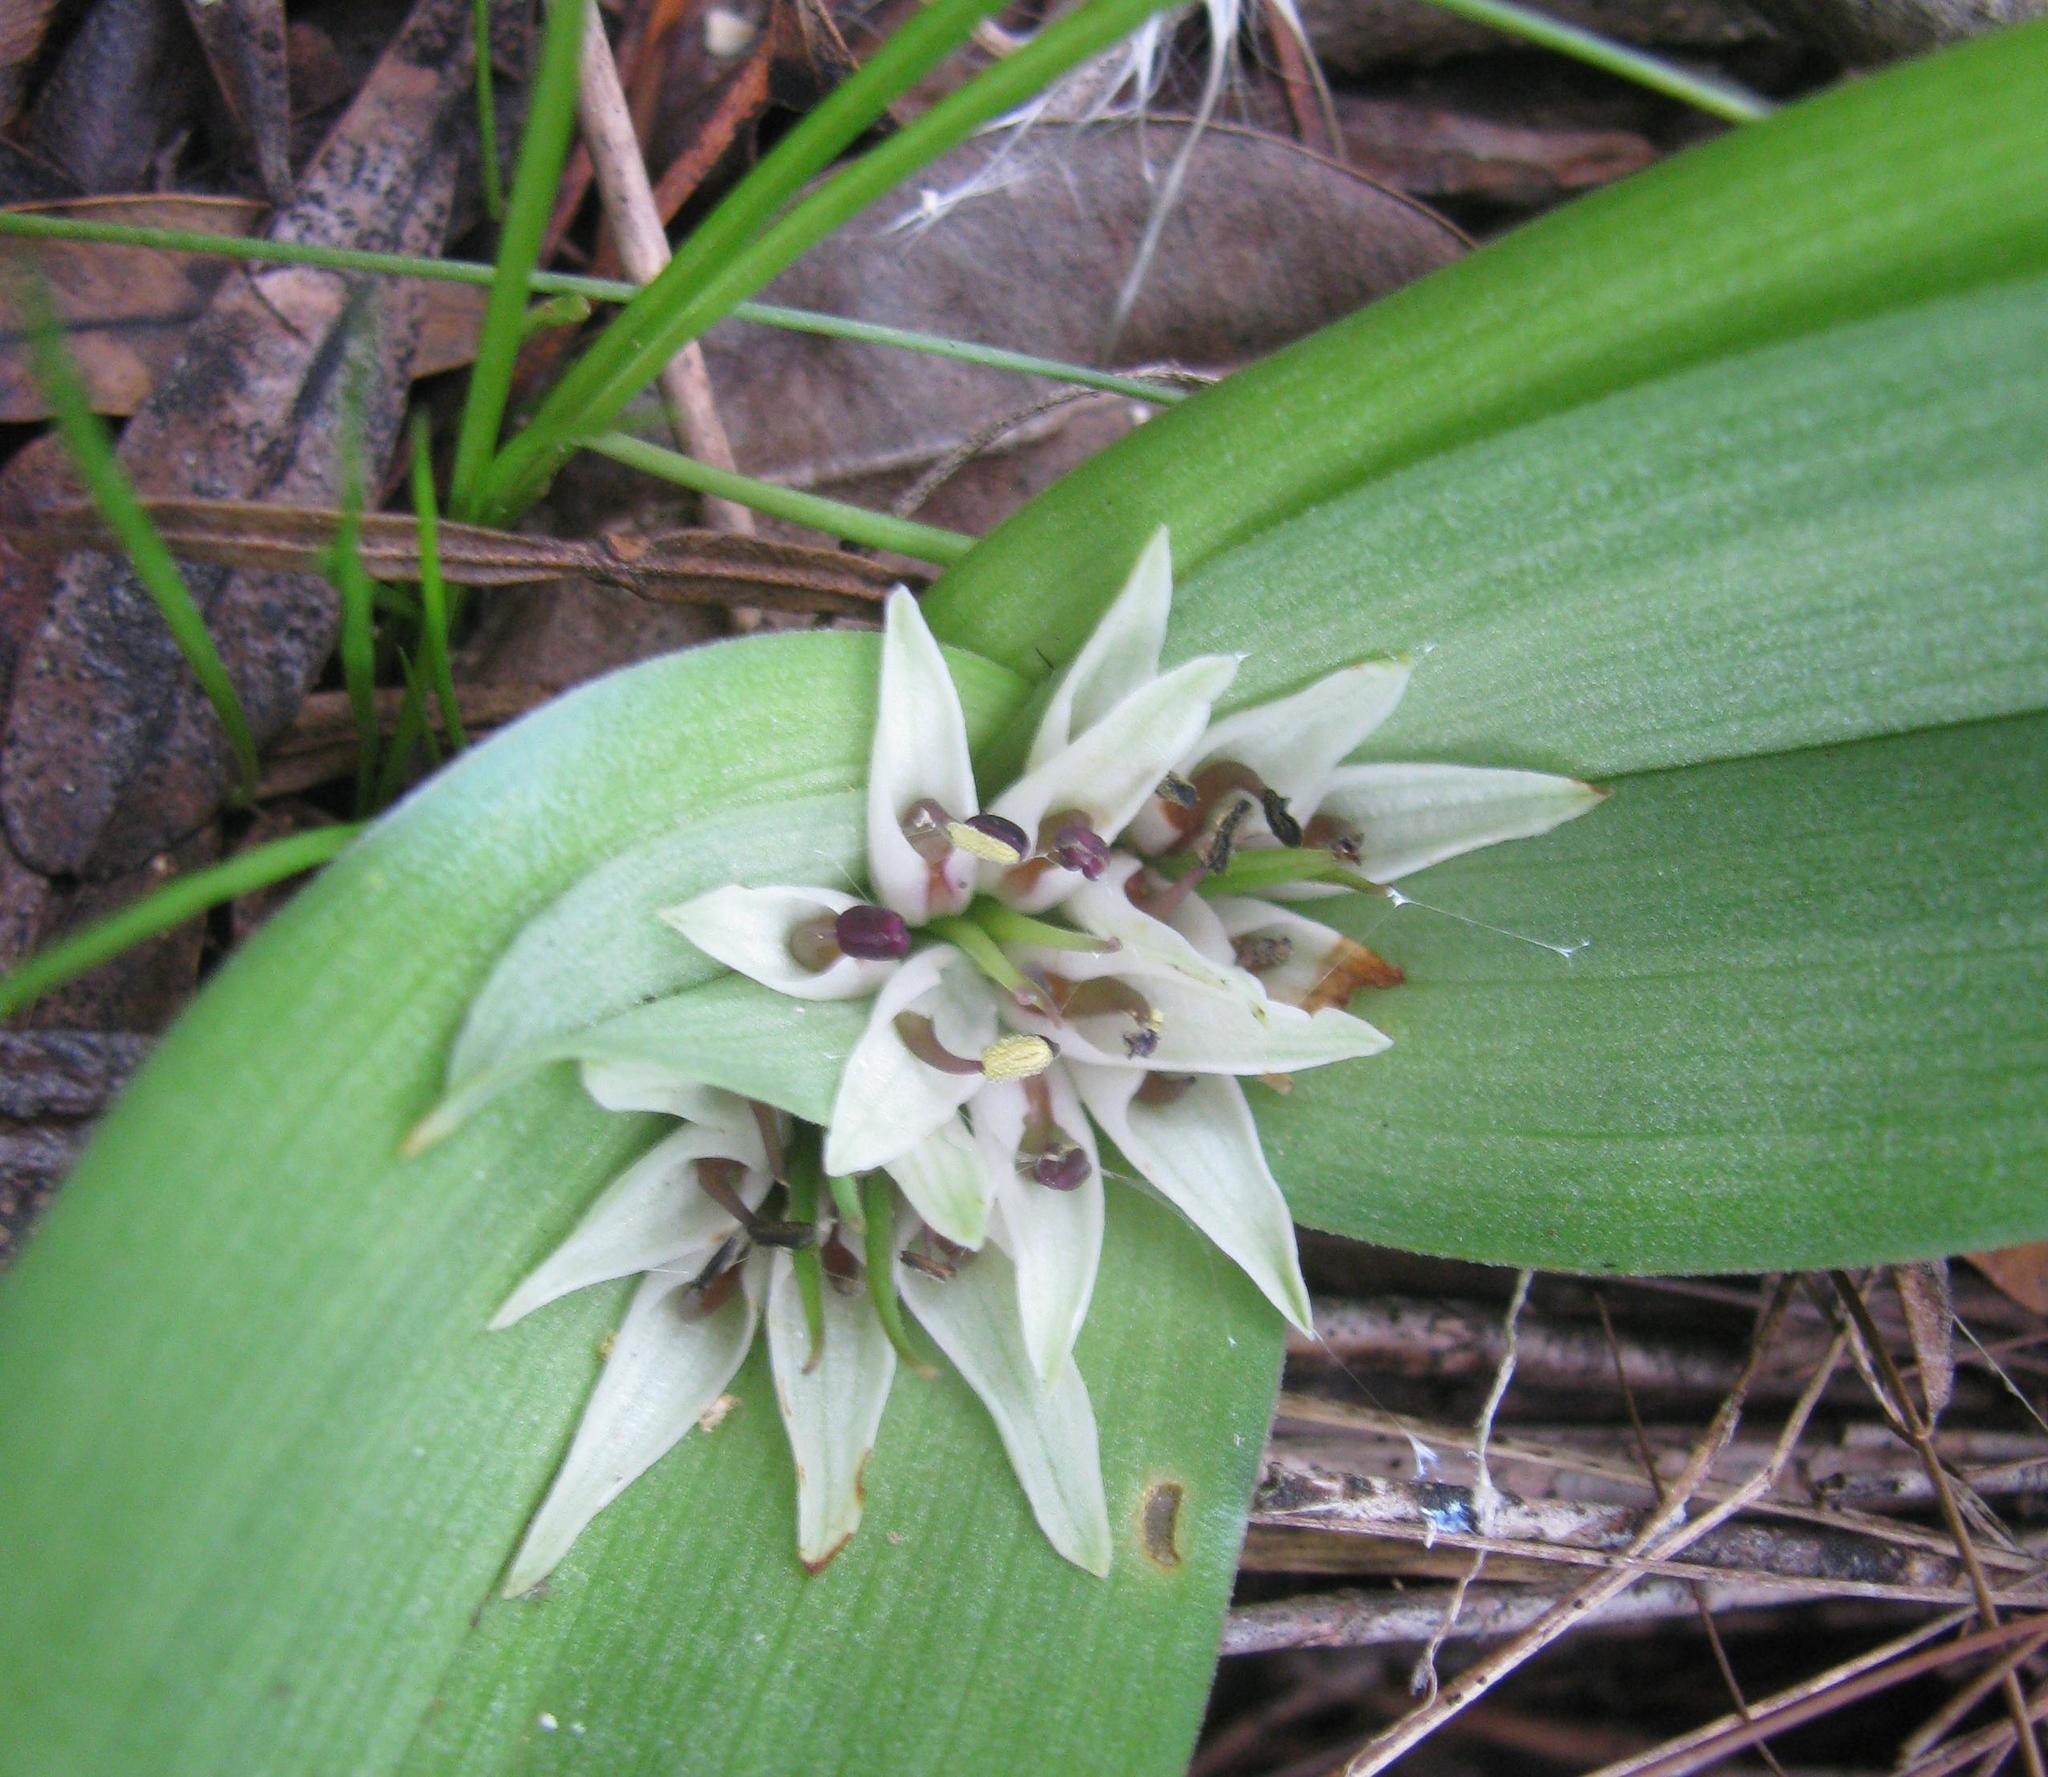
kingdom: Plantae
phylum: Tracheophyta
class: Liliopsida
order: Liliales
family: Colchicaceae
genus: Colchicum
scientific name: Colchicum longipes
